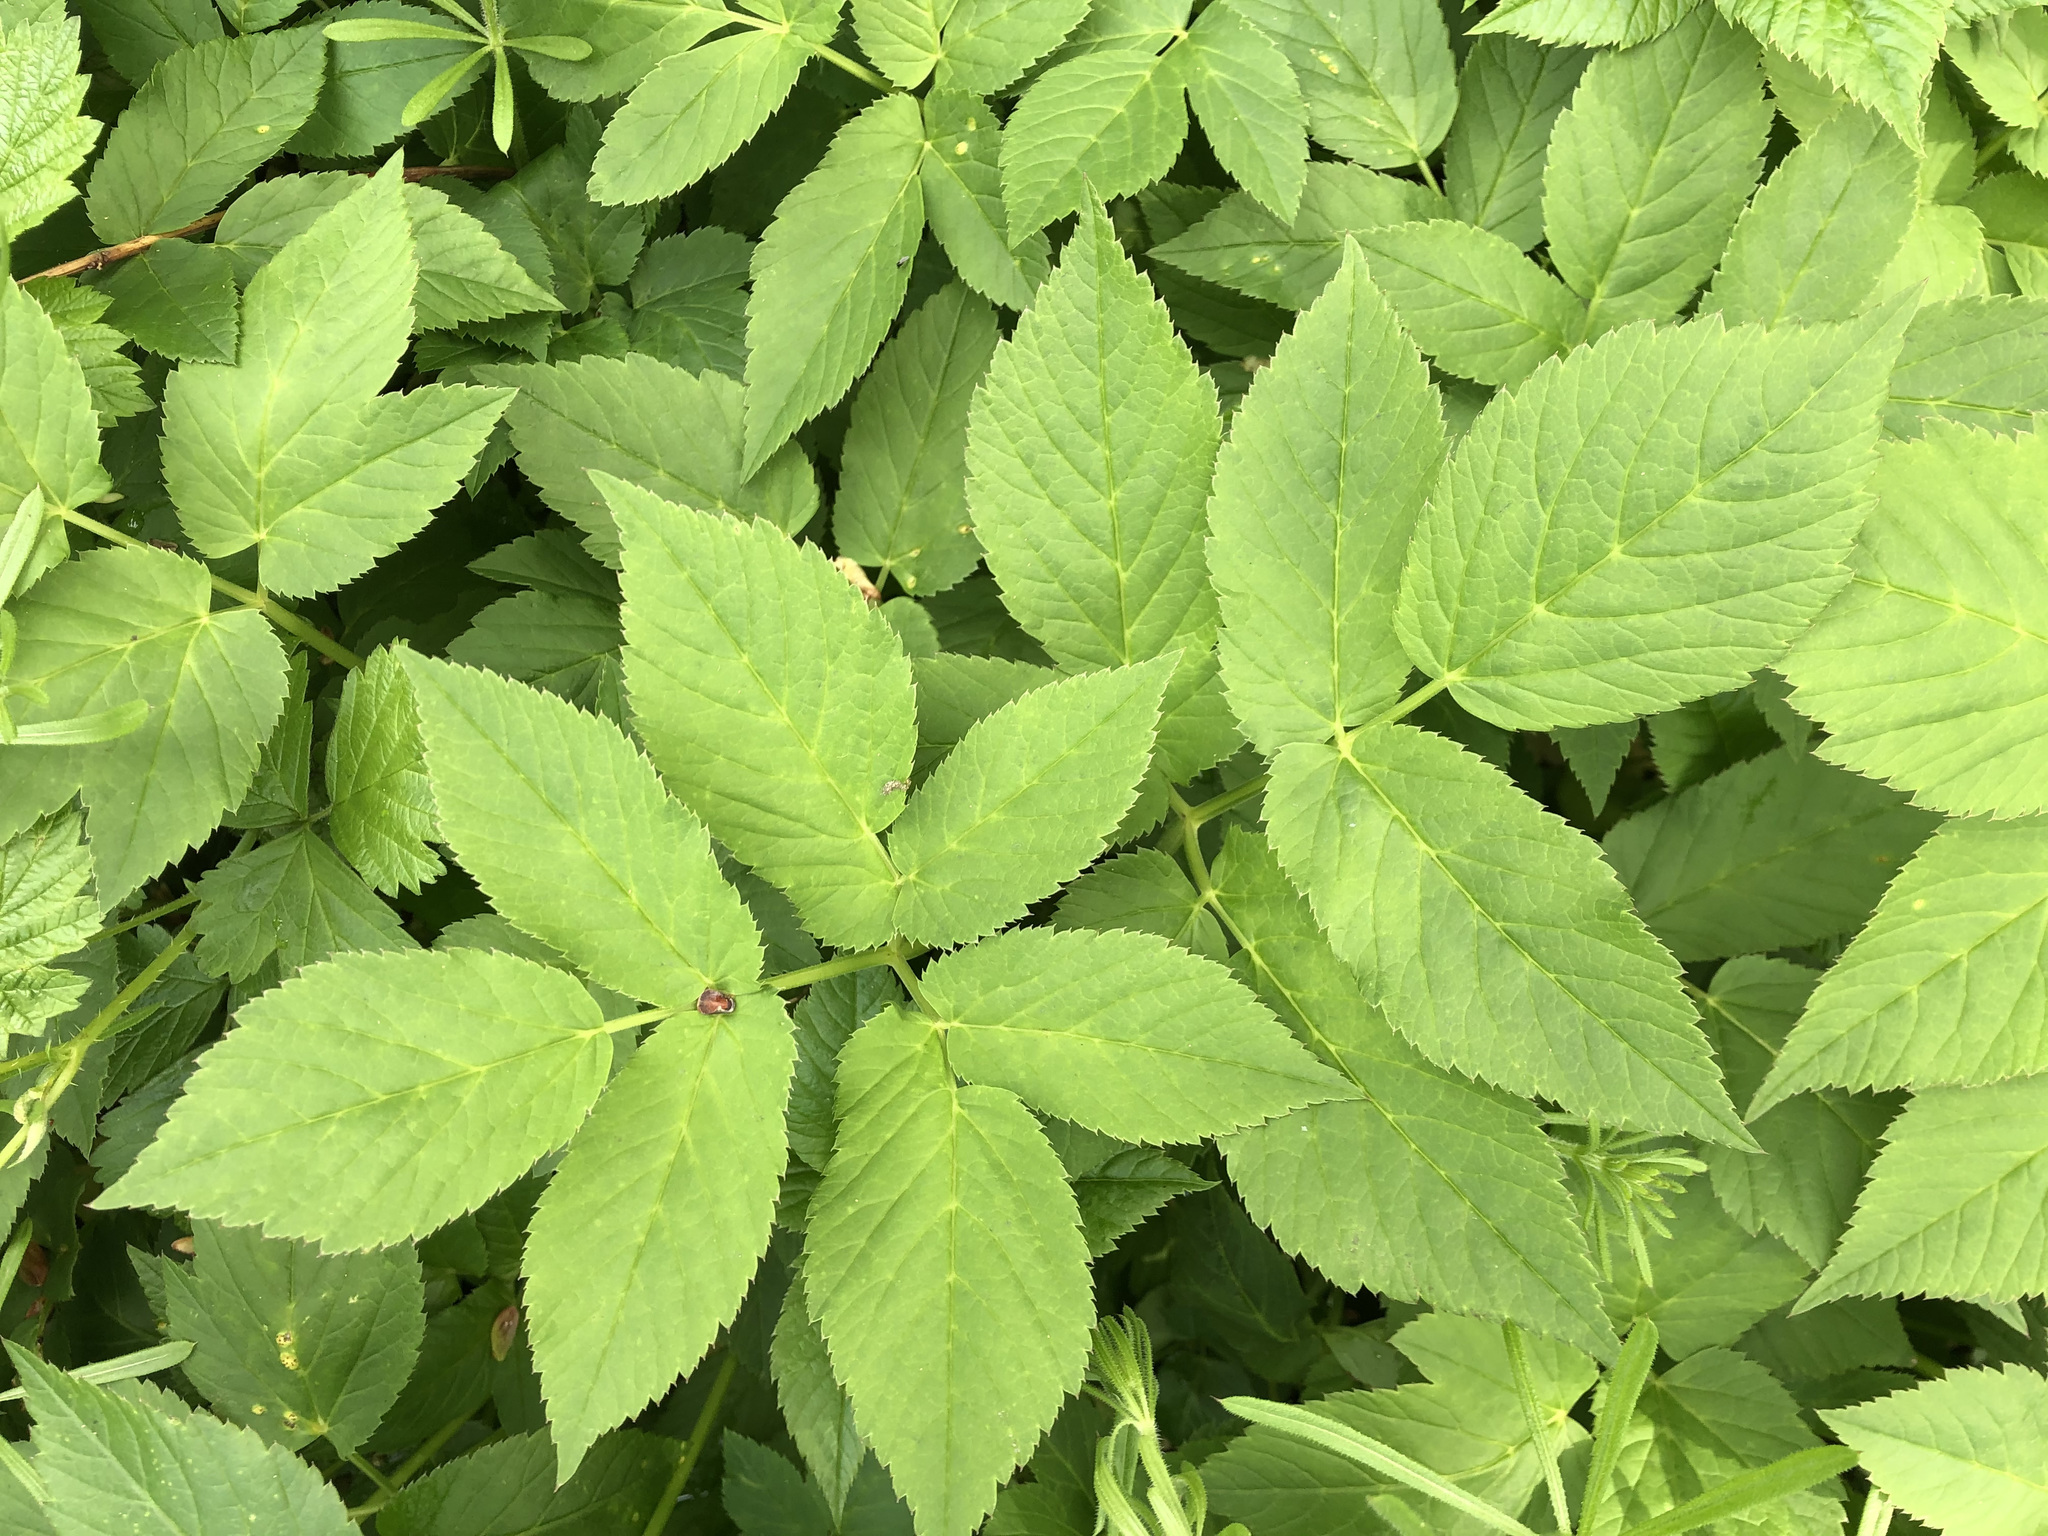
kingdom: Plantae
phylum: Tracheophyta
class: Magnoliopsida
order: Apiales
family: Apiaceae
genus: Aegopodium
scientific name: Aegopodium podagraria
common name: Ground-elder
